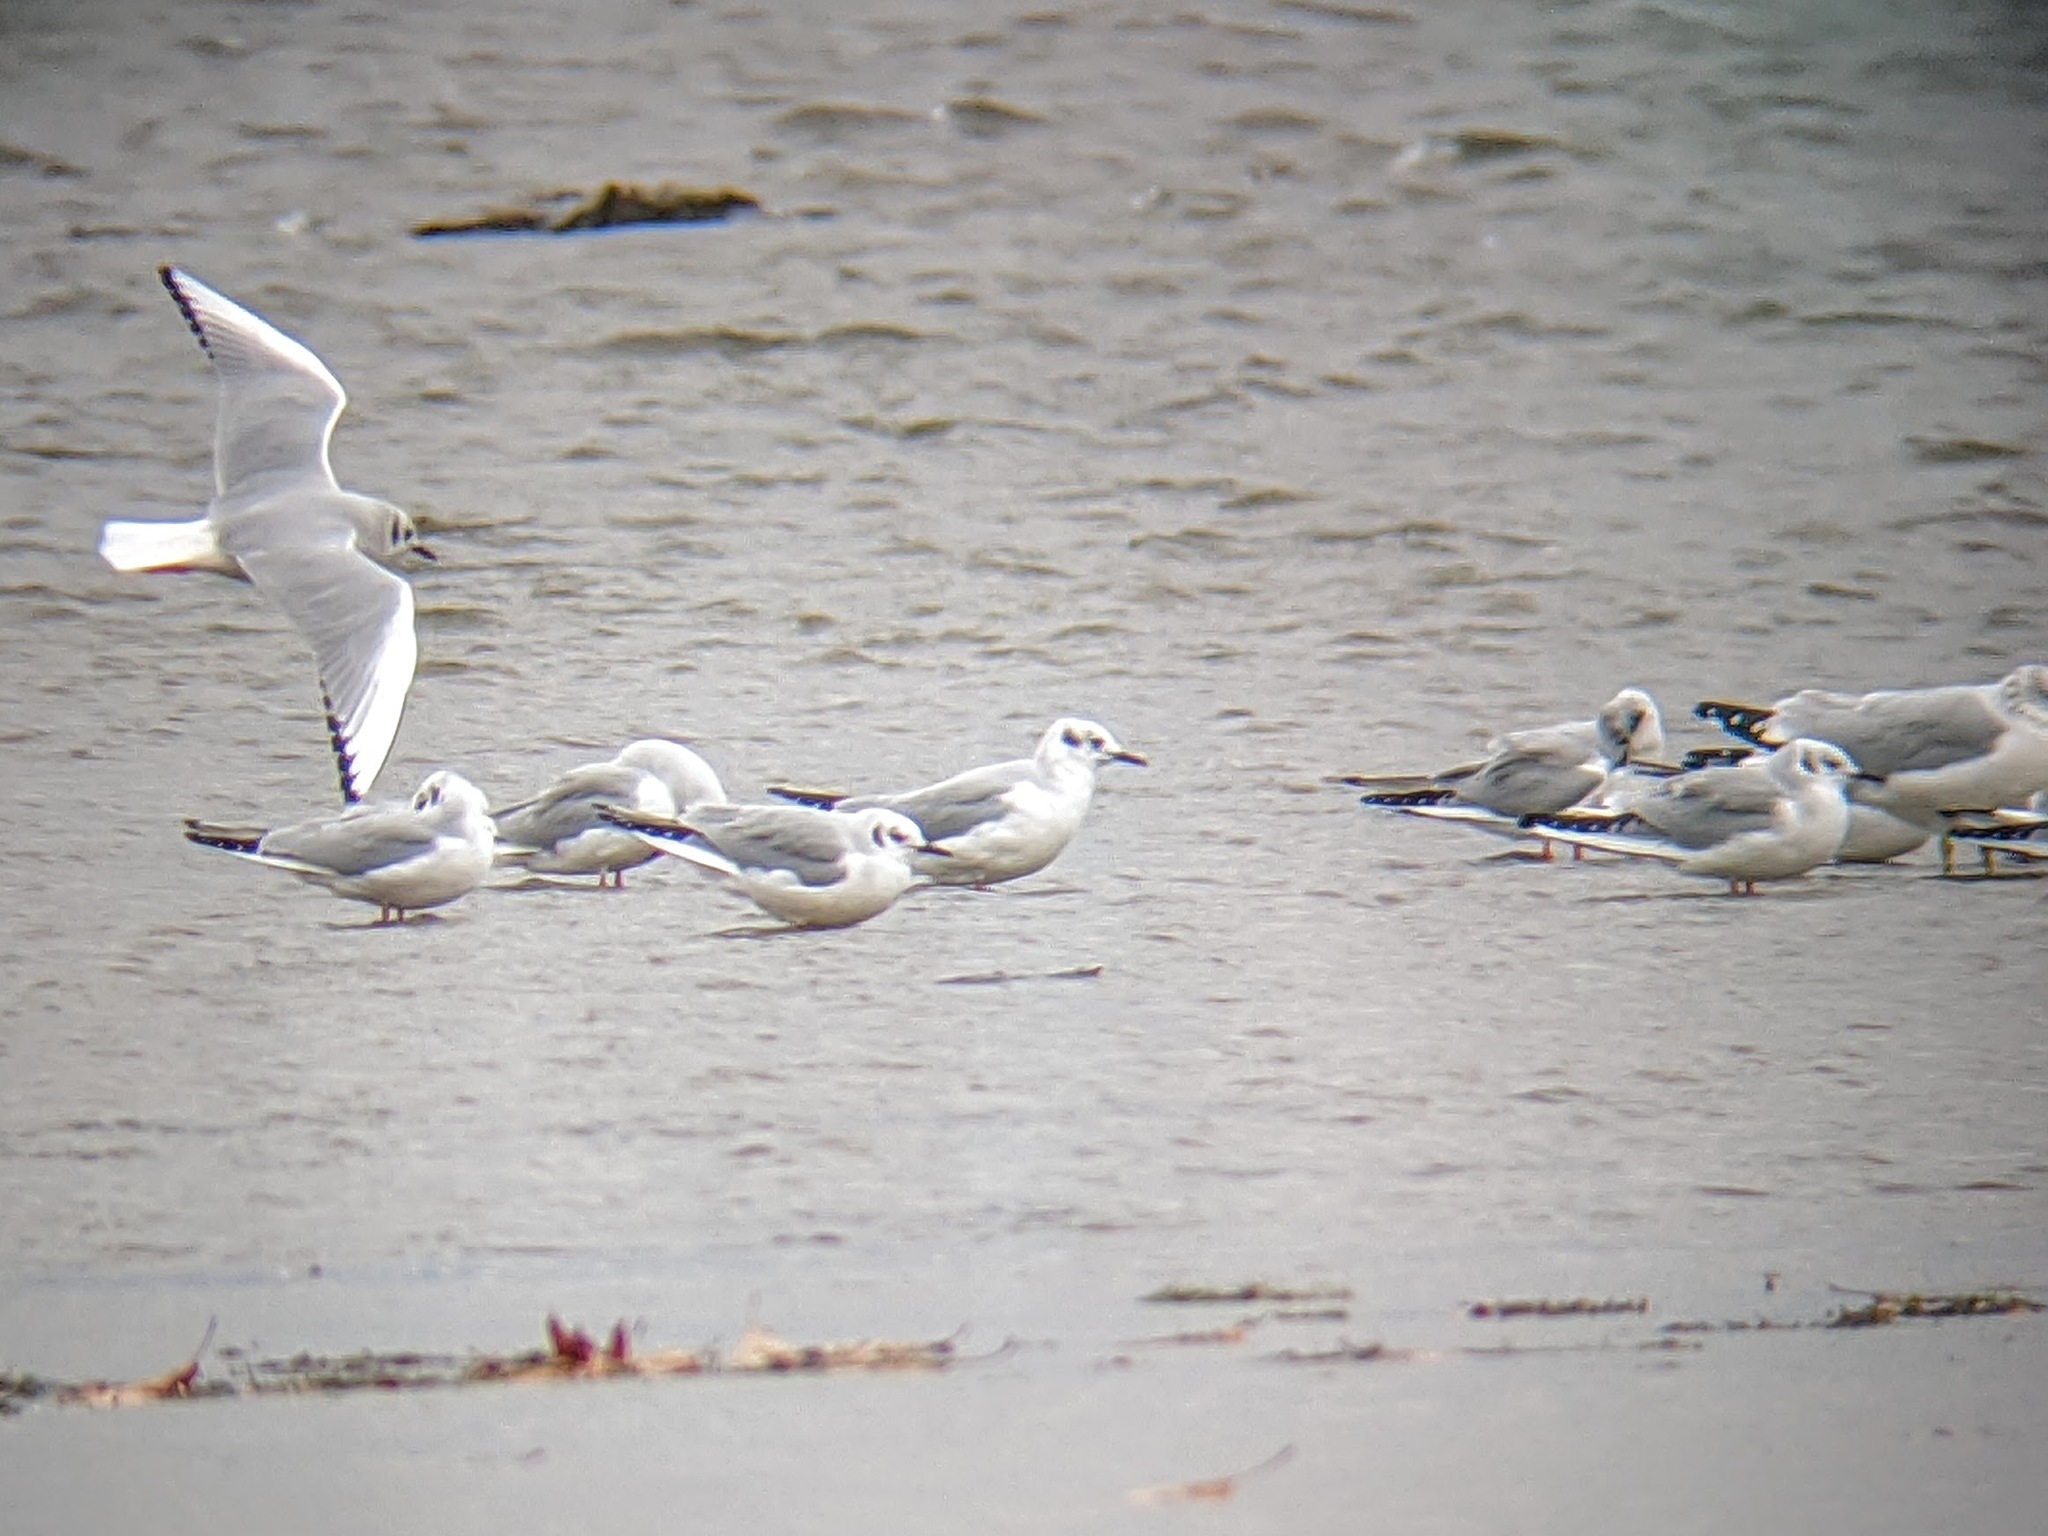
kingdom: Animalia
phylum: Chordata
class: Aves
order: Charadriiformes
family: Laridae
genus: Chroicocephalus
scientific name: Chroicocephalus philadelphia
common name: Bonaparte's gull
